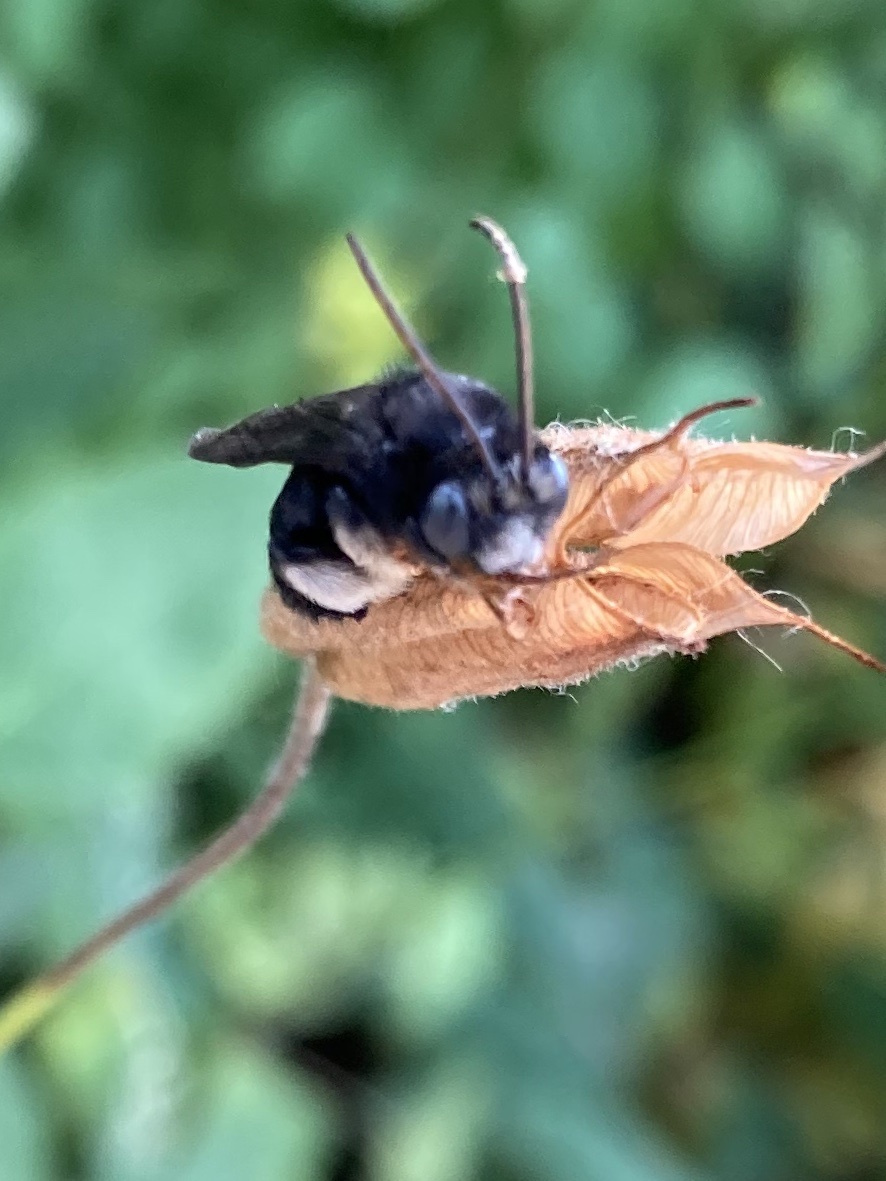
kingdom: Animalia
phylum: Arthropoda
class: Insecta
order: Hymenoptera
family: Apidae
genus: Melissodes
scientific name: Melissodes bimaculatus
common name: Two-spotted long-horned bee
